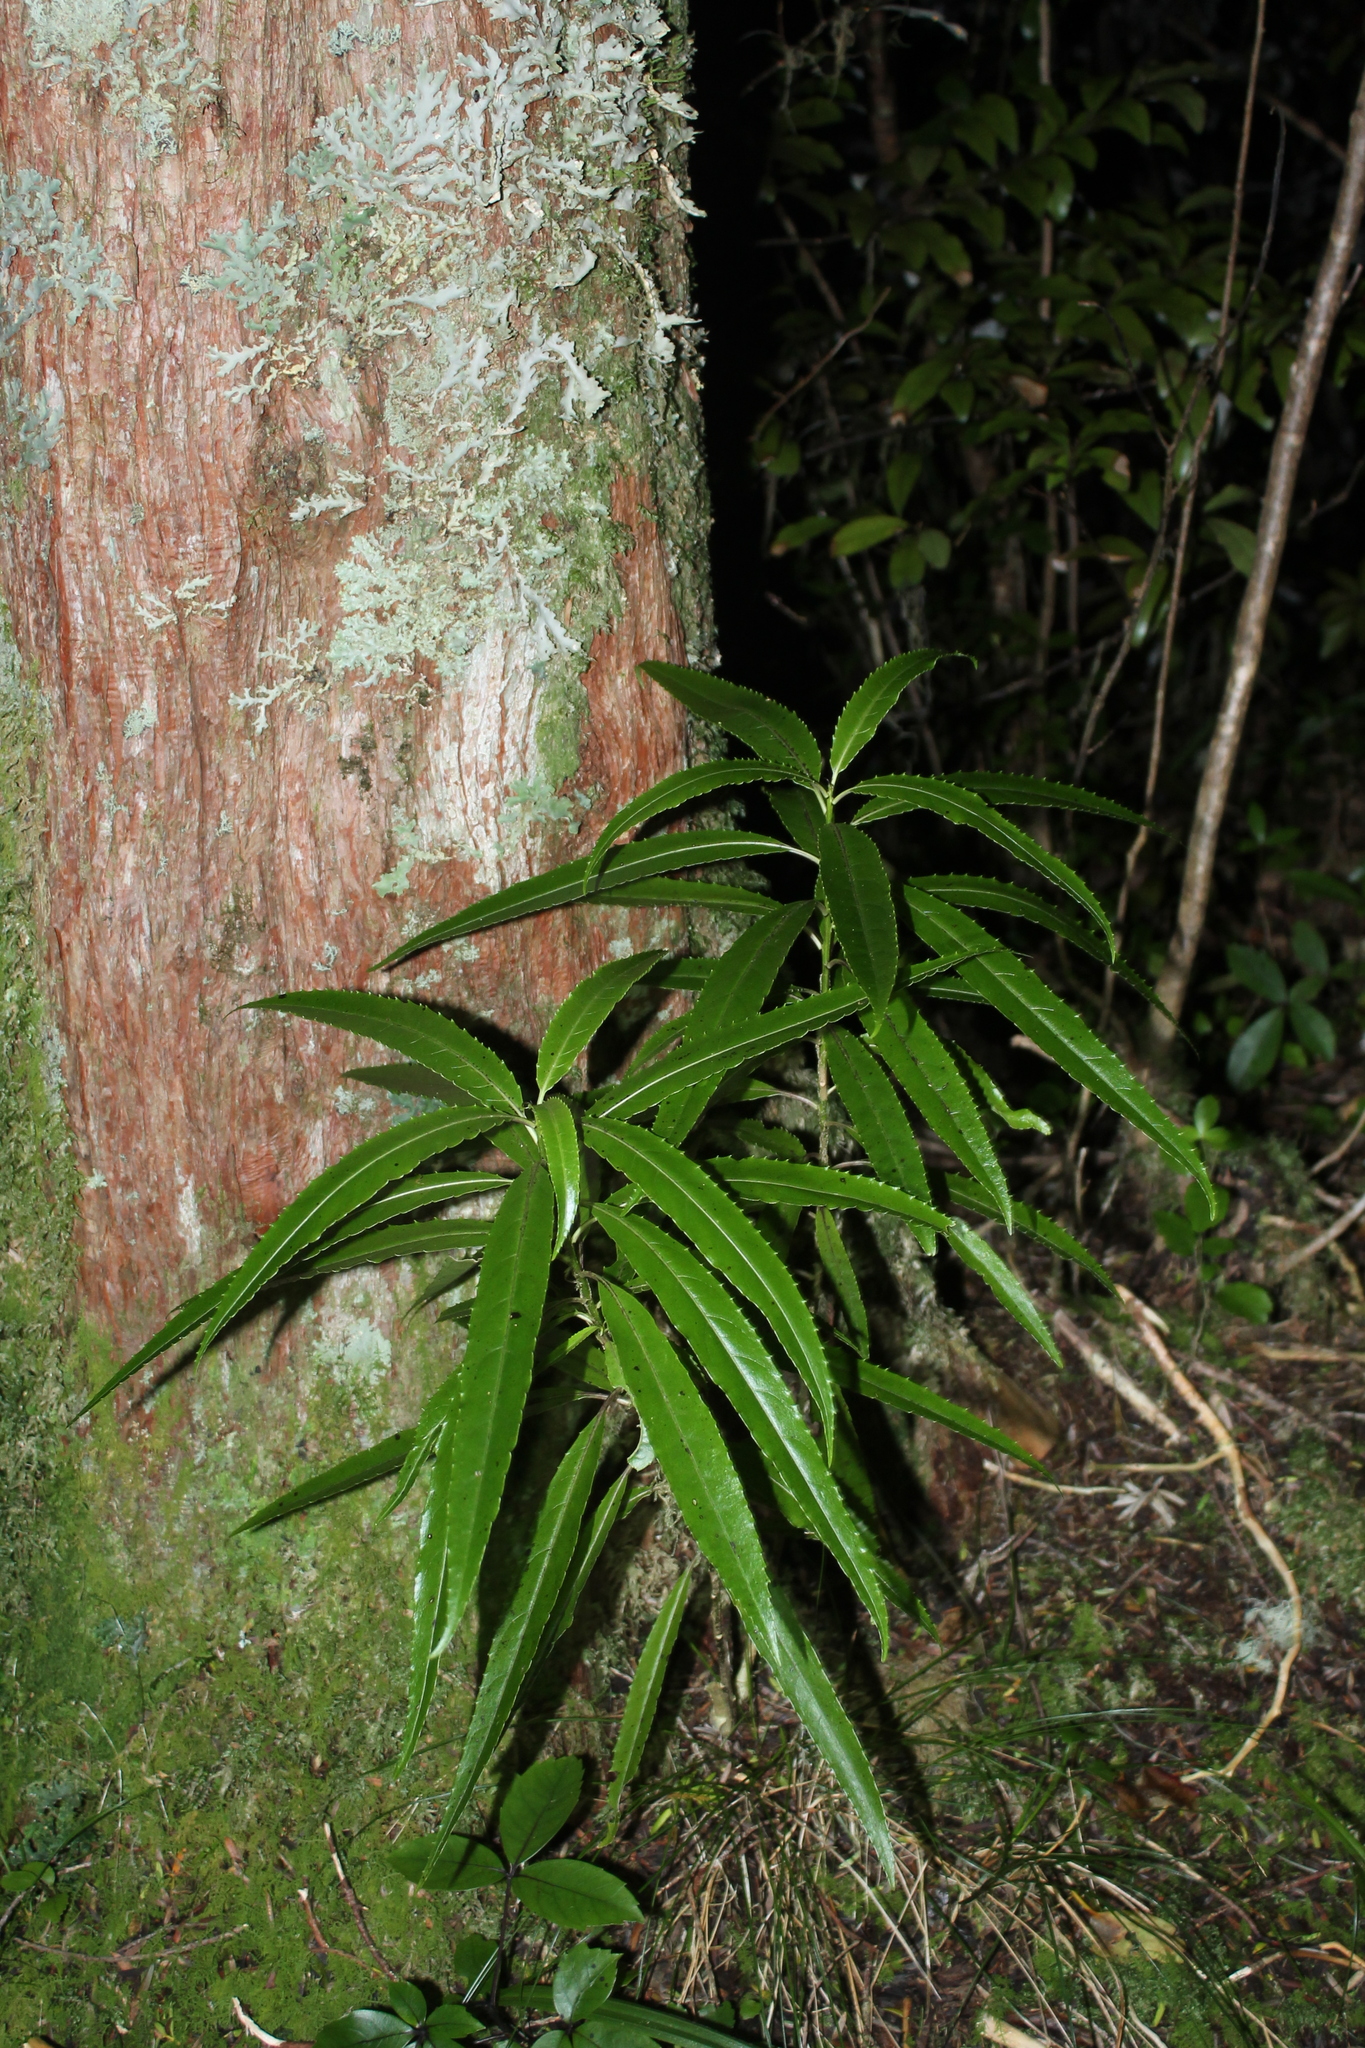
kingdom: Plantae
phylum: Tracheophyta
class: Magnoliopsida
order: Malpighiales
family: Violaceae
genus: Melicytus
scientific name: Melicytus lanceolatus
